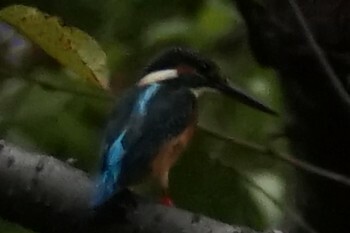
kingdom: Animalia
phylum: Chordata
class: Aves
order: Coraciiformes
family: Alcedinidae
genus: Alcedo
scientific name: Alcedo atthis
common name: Common kingfisher
